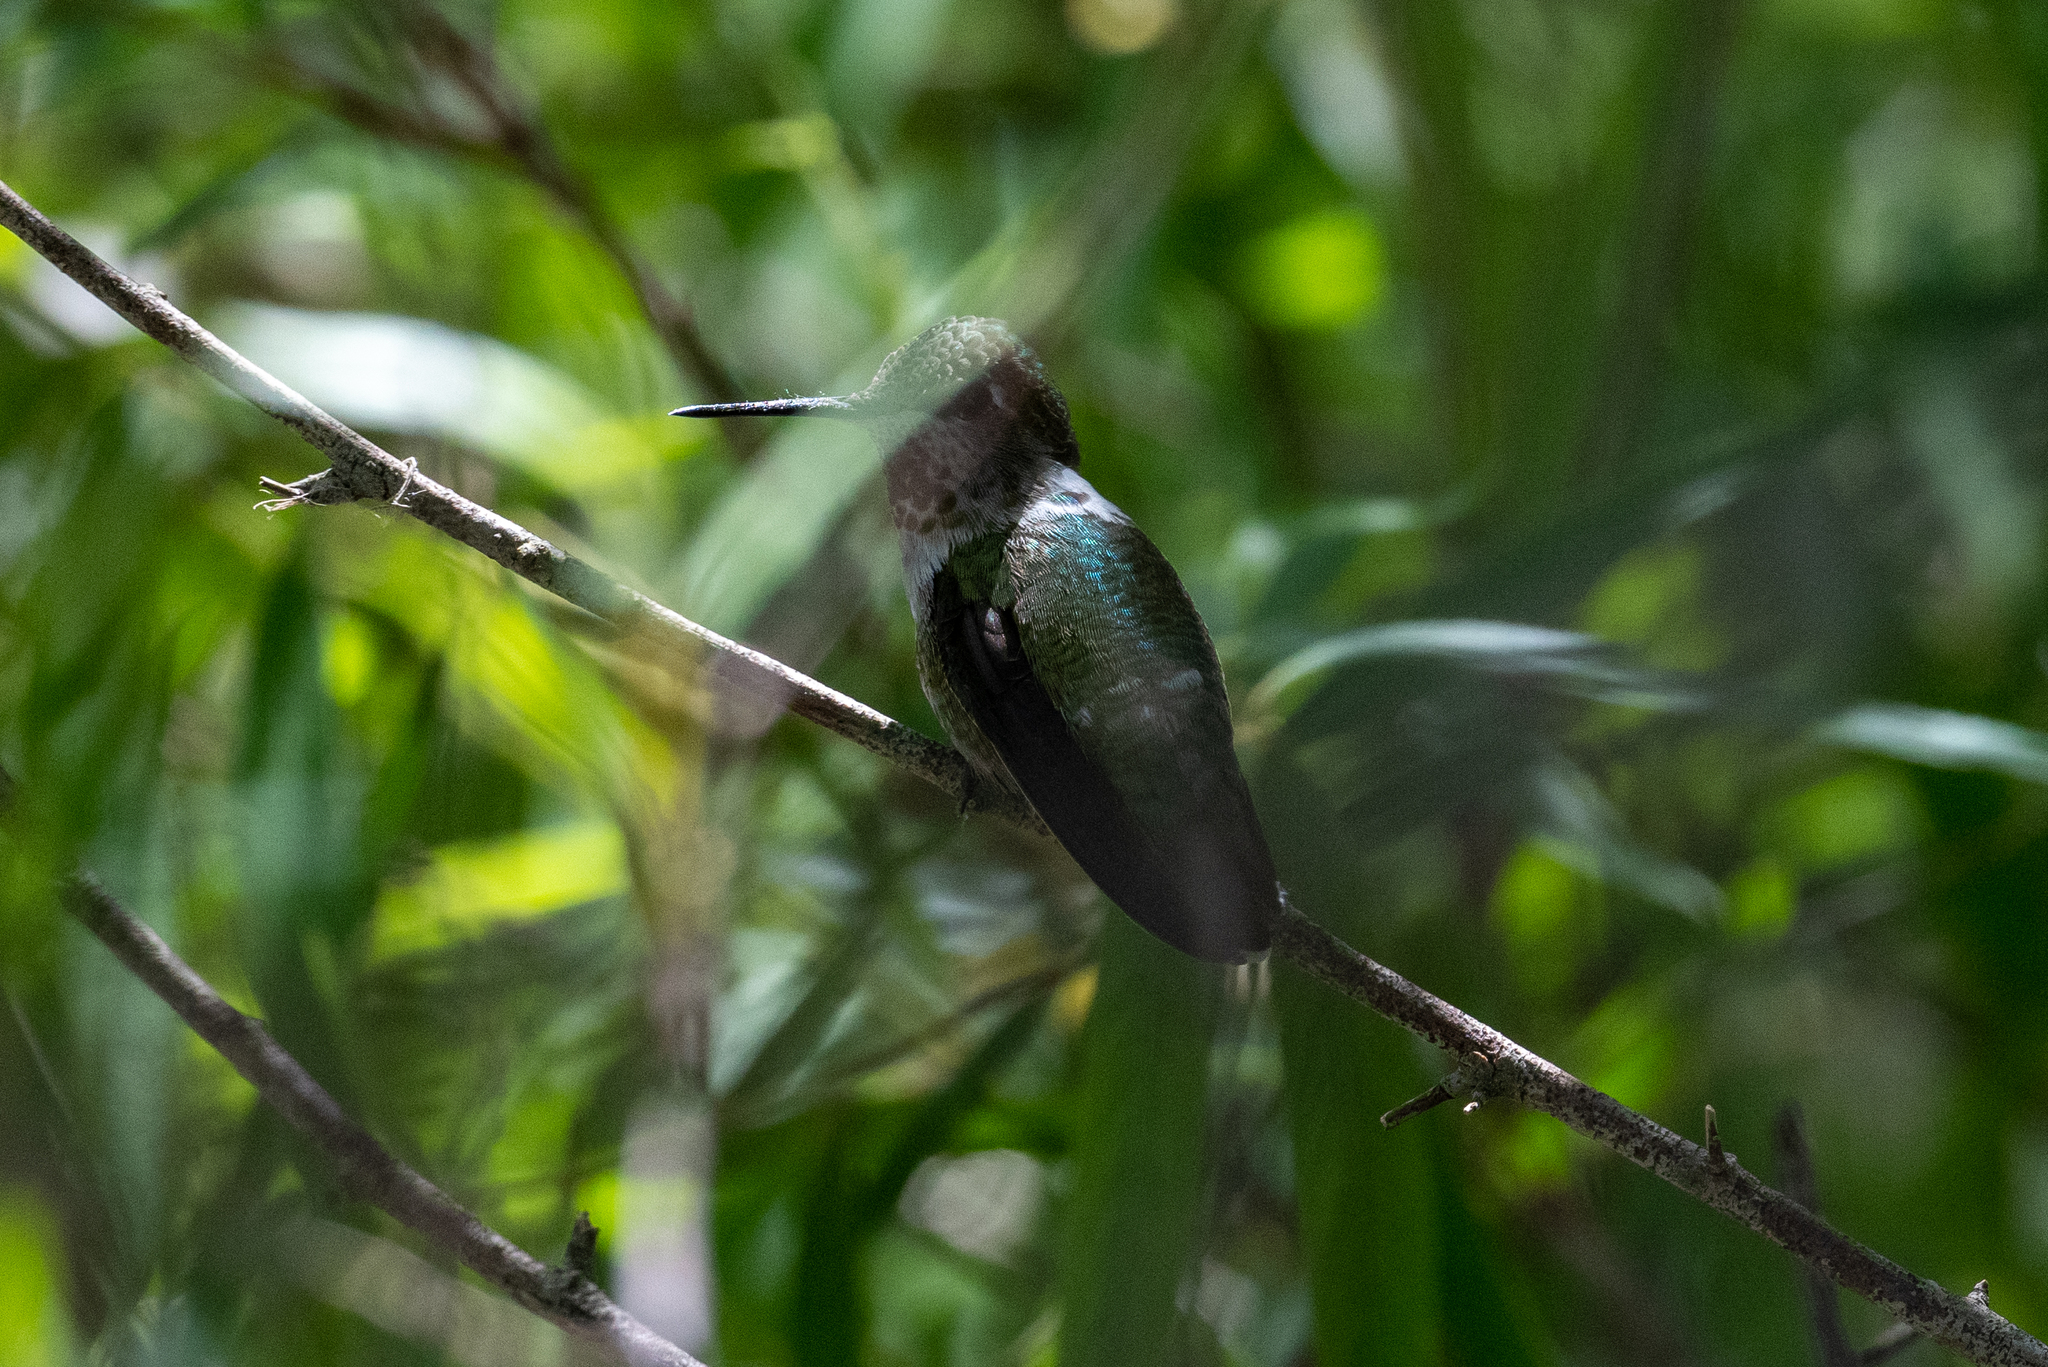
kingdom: Animalia
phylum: Chordata
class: Aves
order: Apodiformes
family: Trochilidae
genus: Calypte
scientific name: Calypte anna
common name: Anna's hummingbird
